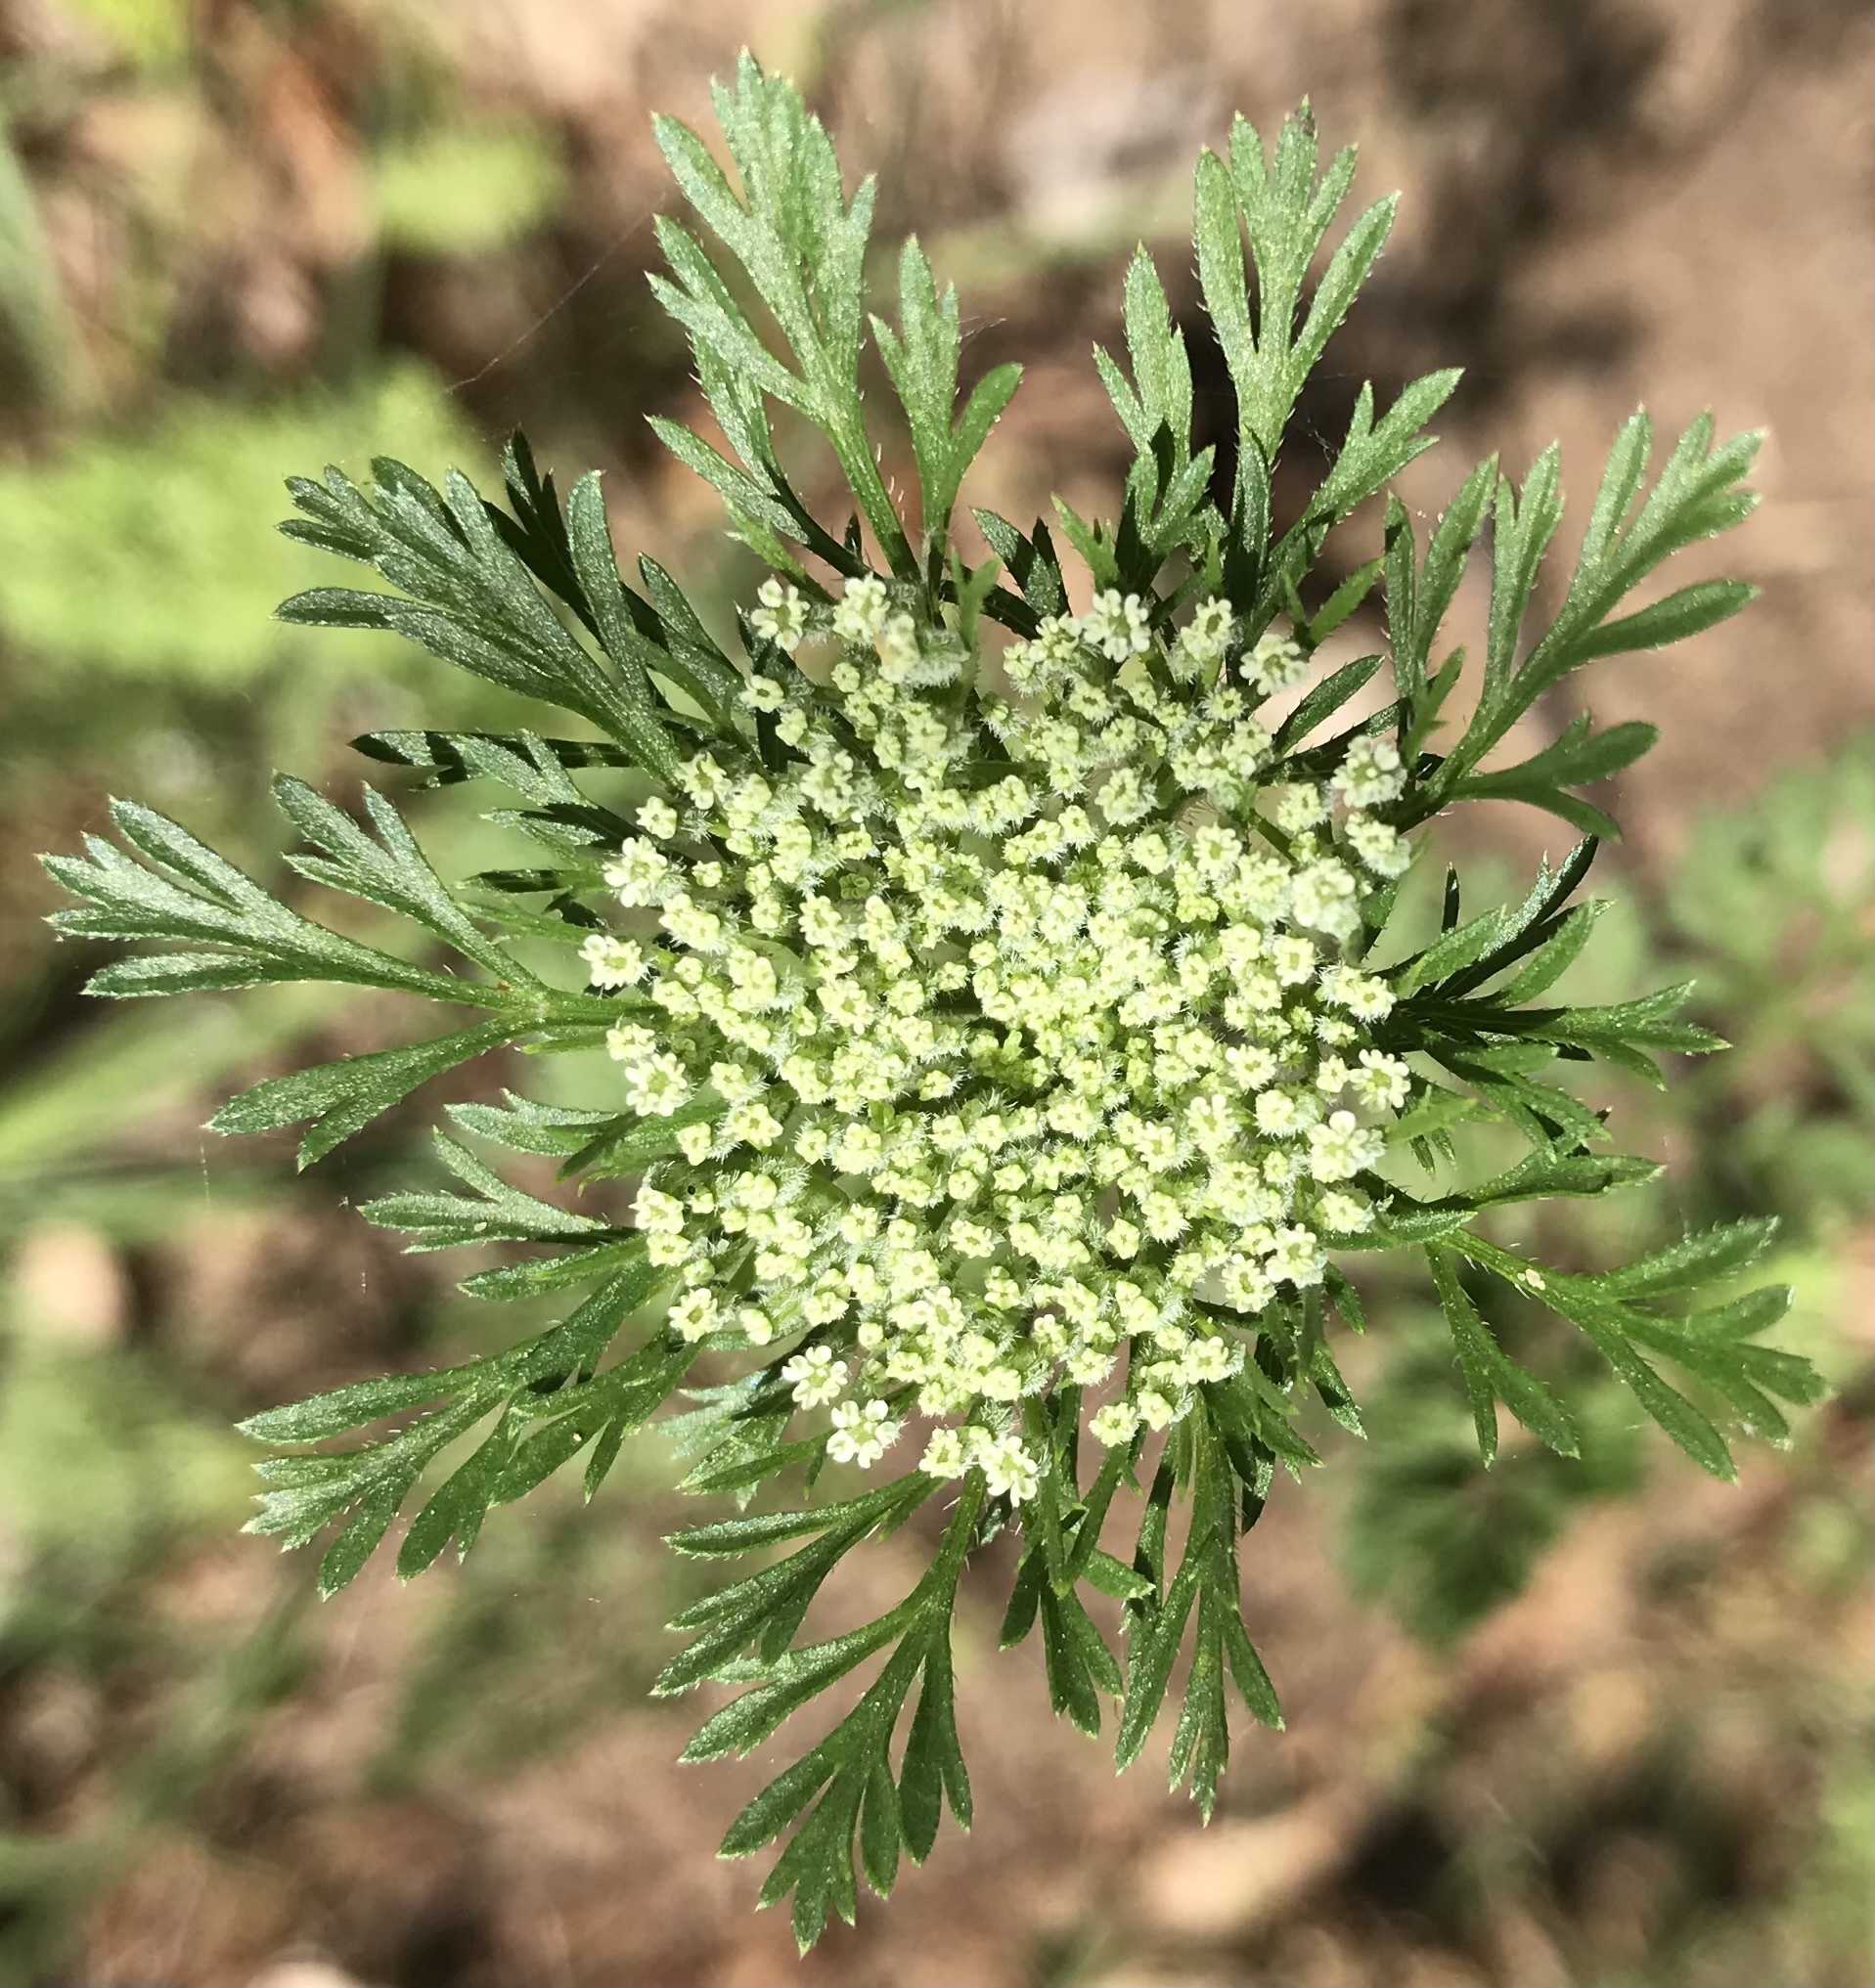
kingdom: Plantae
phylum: Tracheophyta
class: Magnoliopsida
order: Apiales
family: Apiaceae
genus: Daucus
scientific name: Daucus pusillus
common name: Southwest wild carrot
